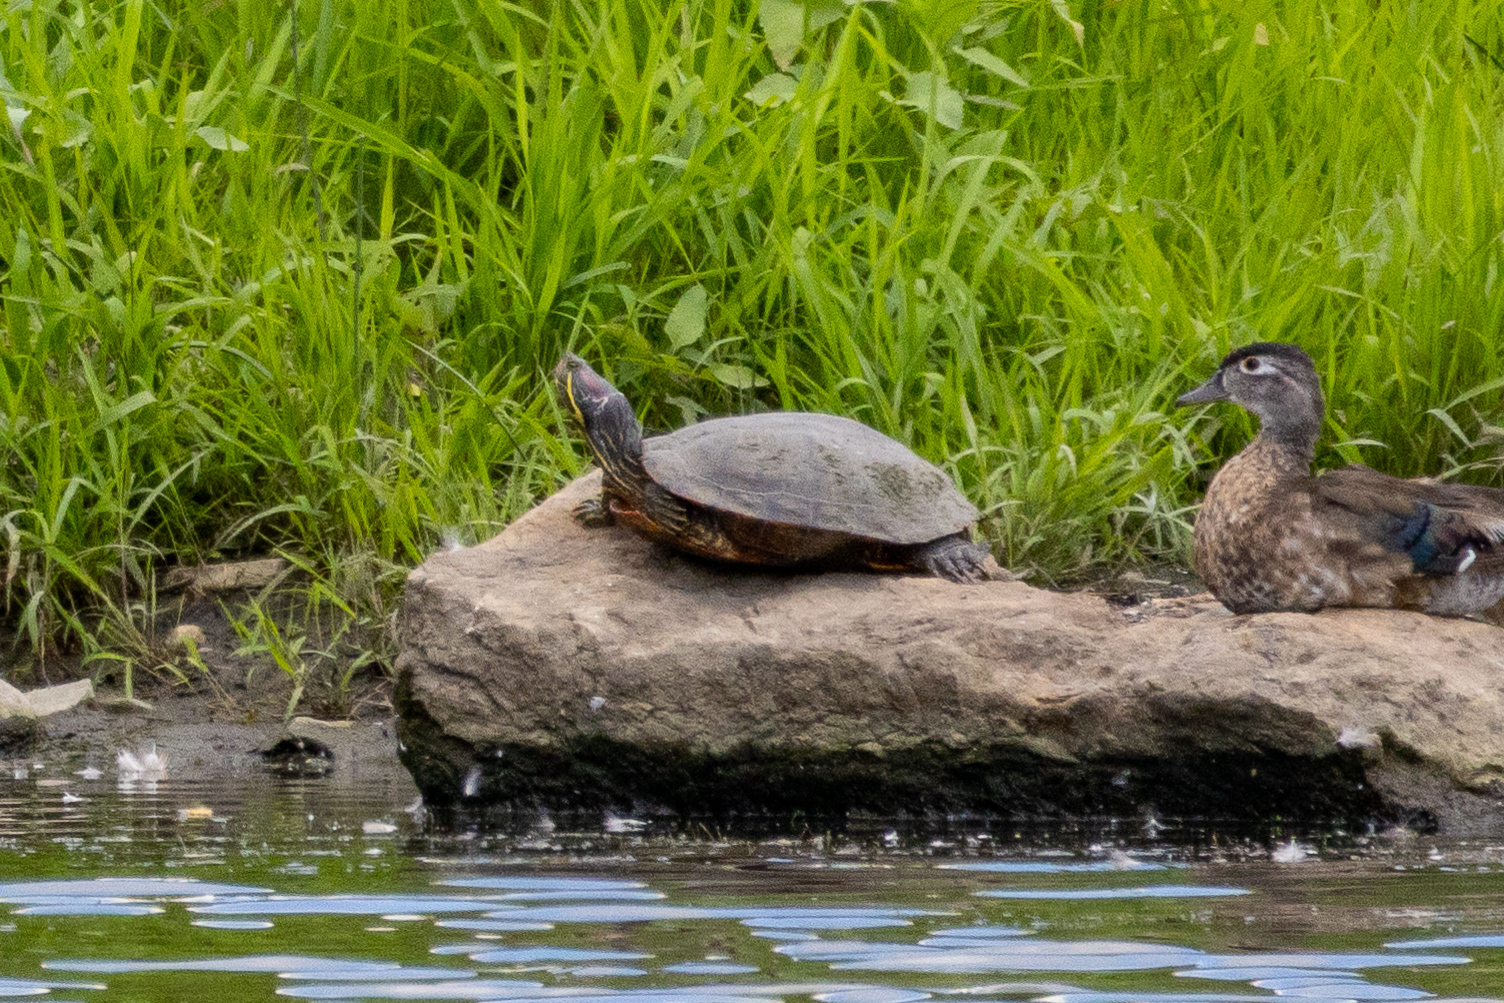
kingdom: Animalia
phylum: Chordata
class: Testudines
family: Emydidae
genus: Trachemys
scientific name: Trachemys scripta
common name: Slider
